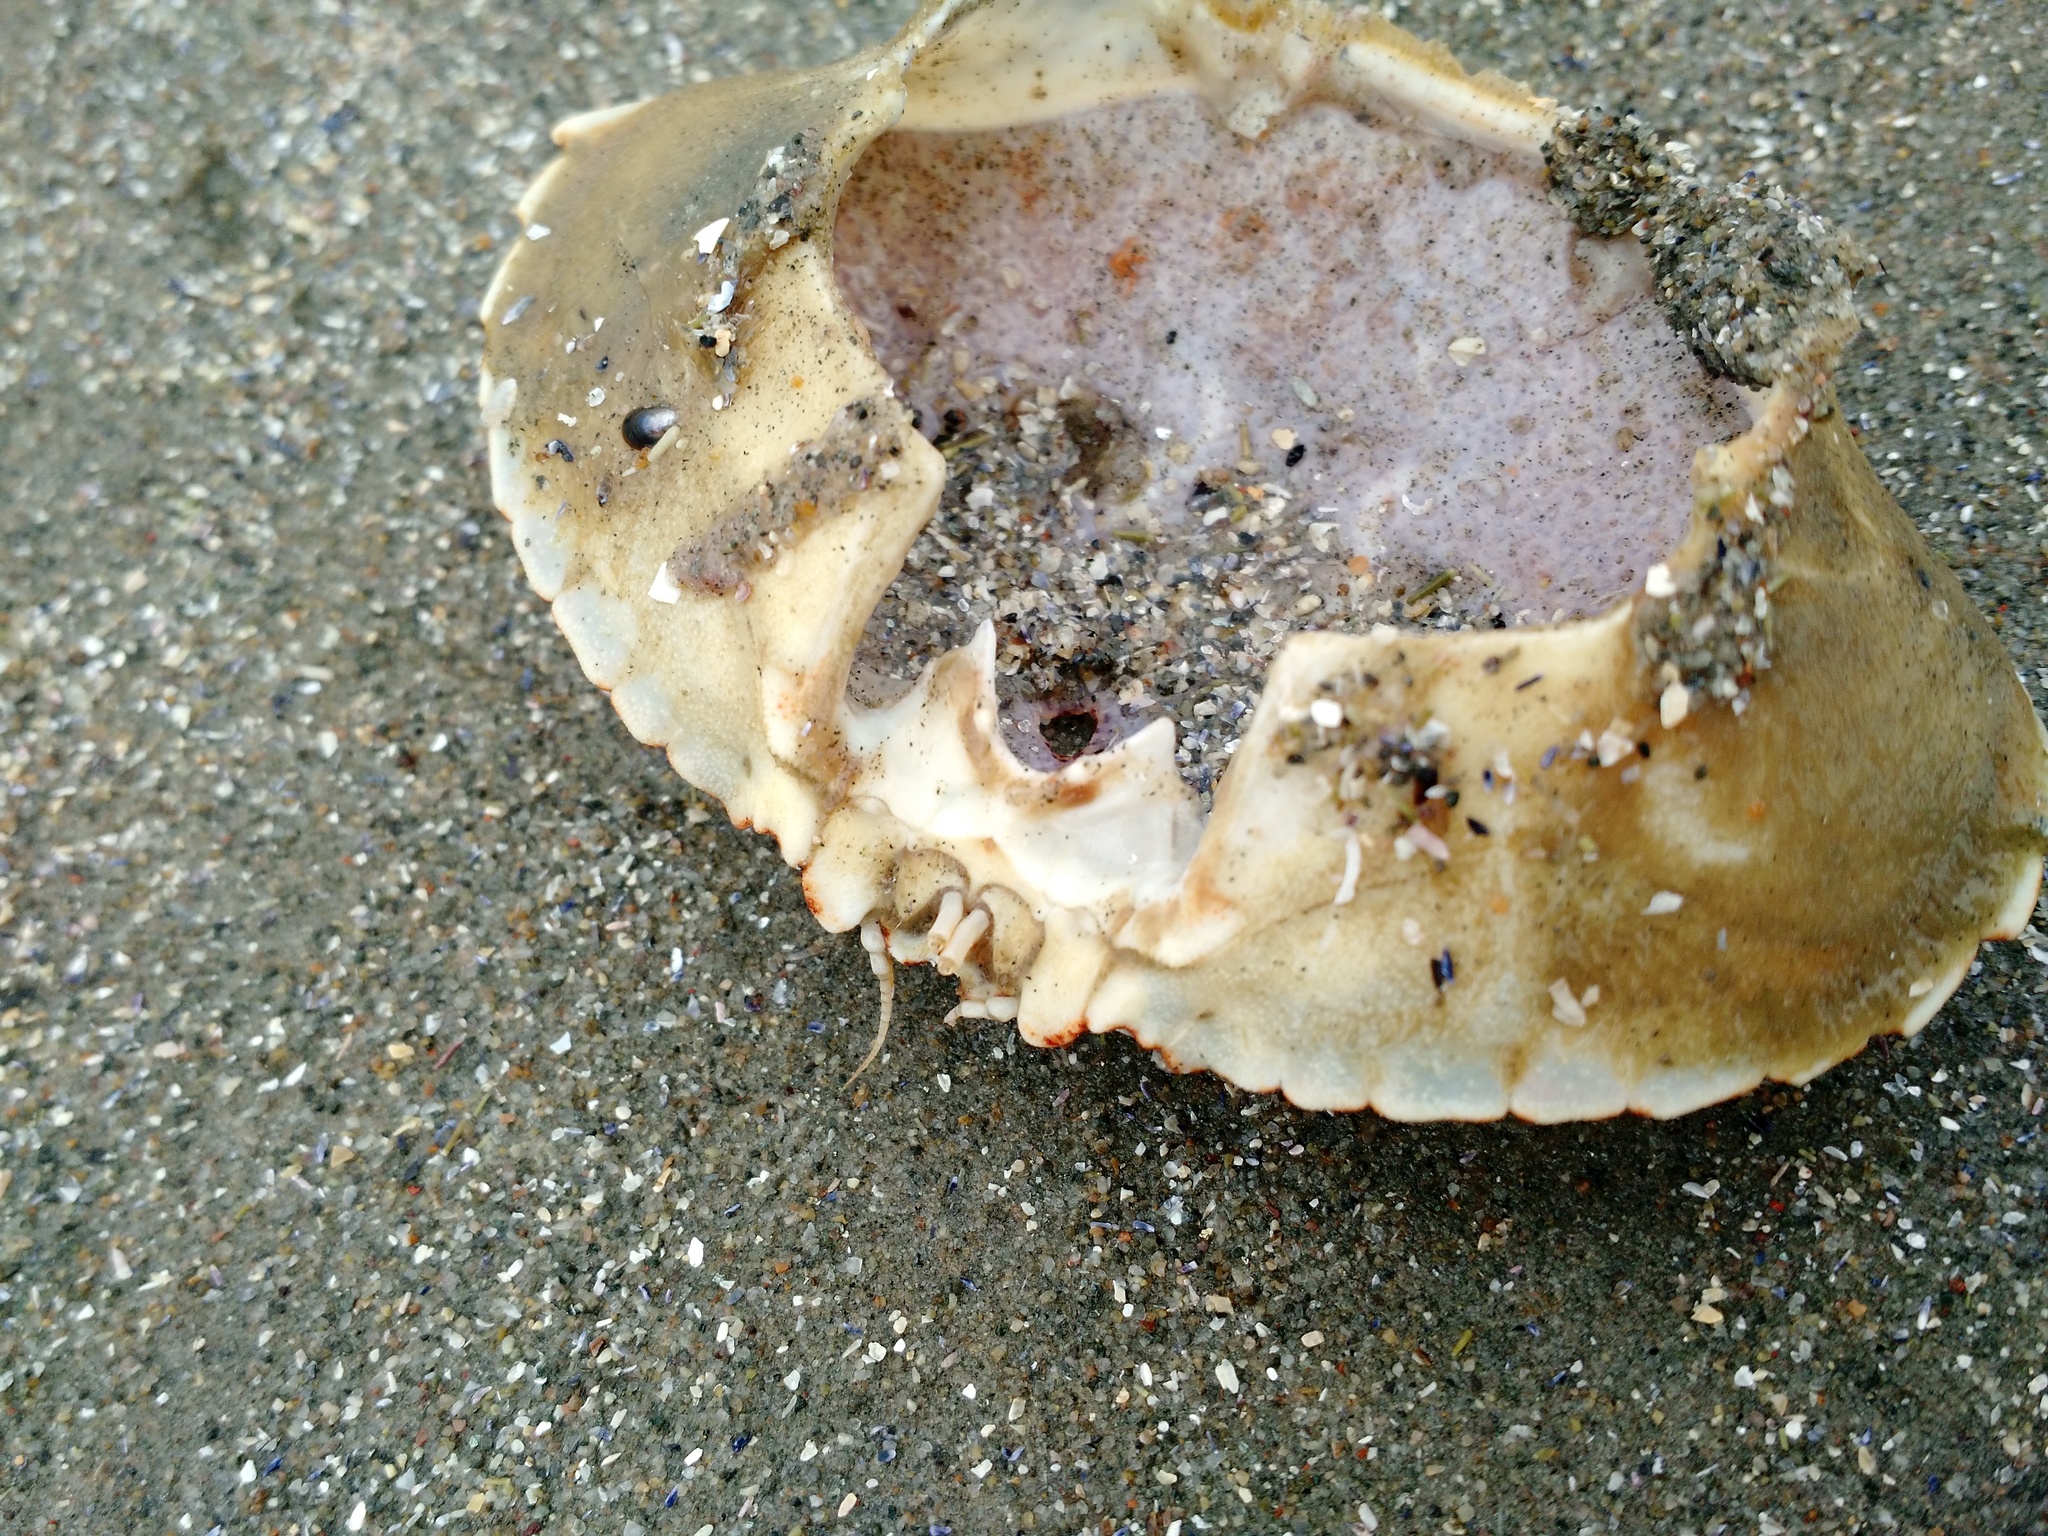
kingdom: Animalia
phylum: Arthropoda
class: Malacostraca
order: Decapoda
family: Cancridae
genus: Cancer
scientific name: Cancer irroratus
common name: Atlantic rock crab
